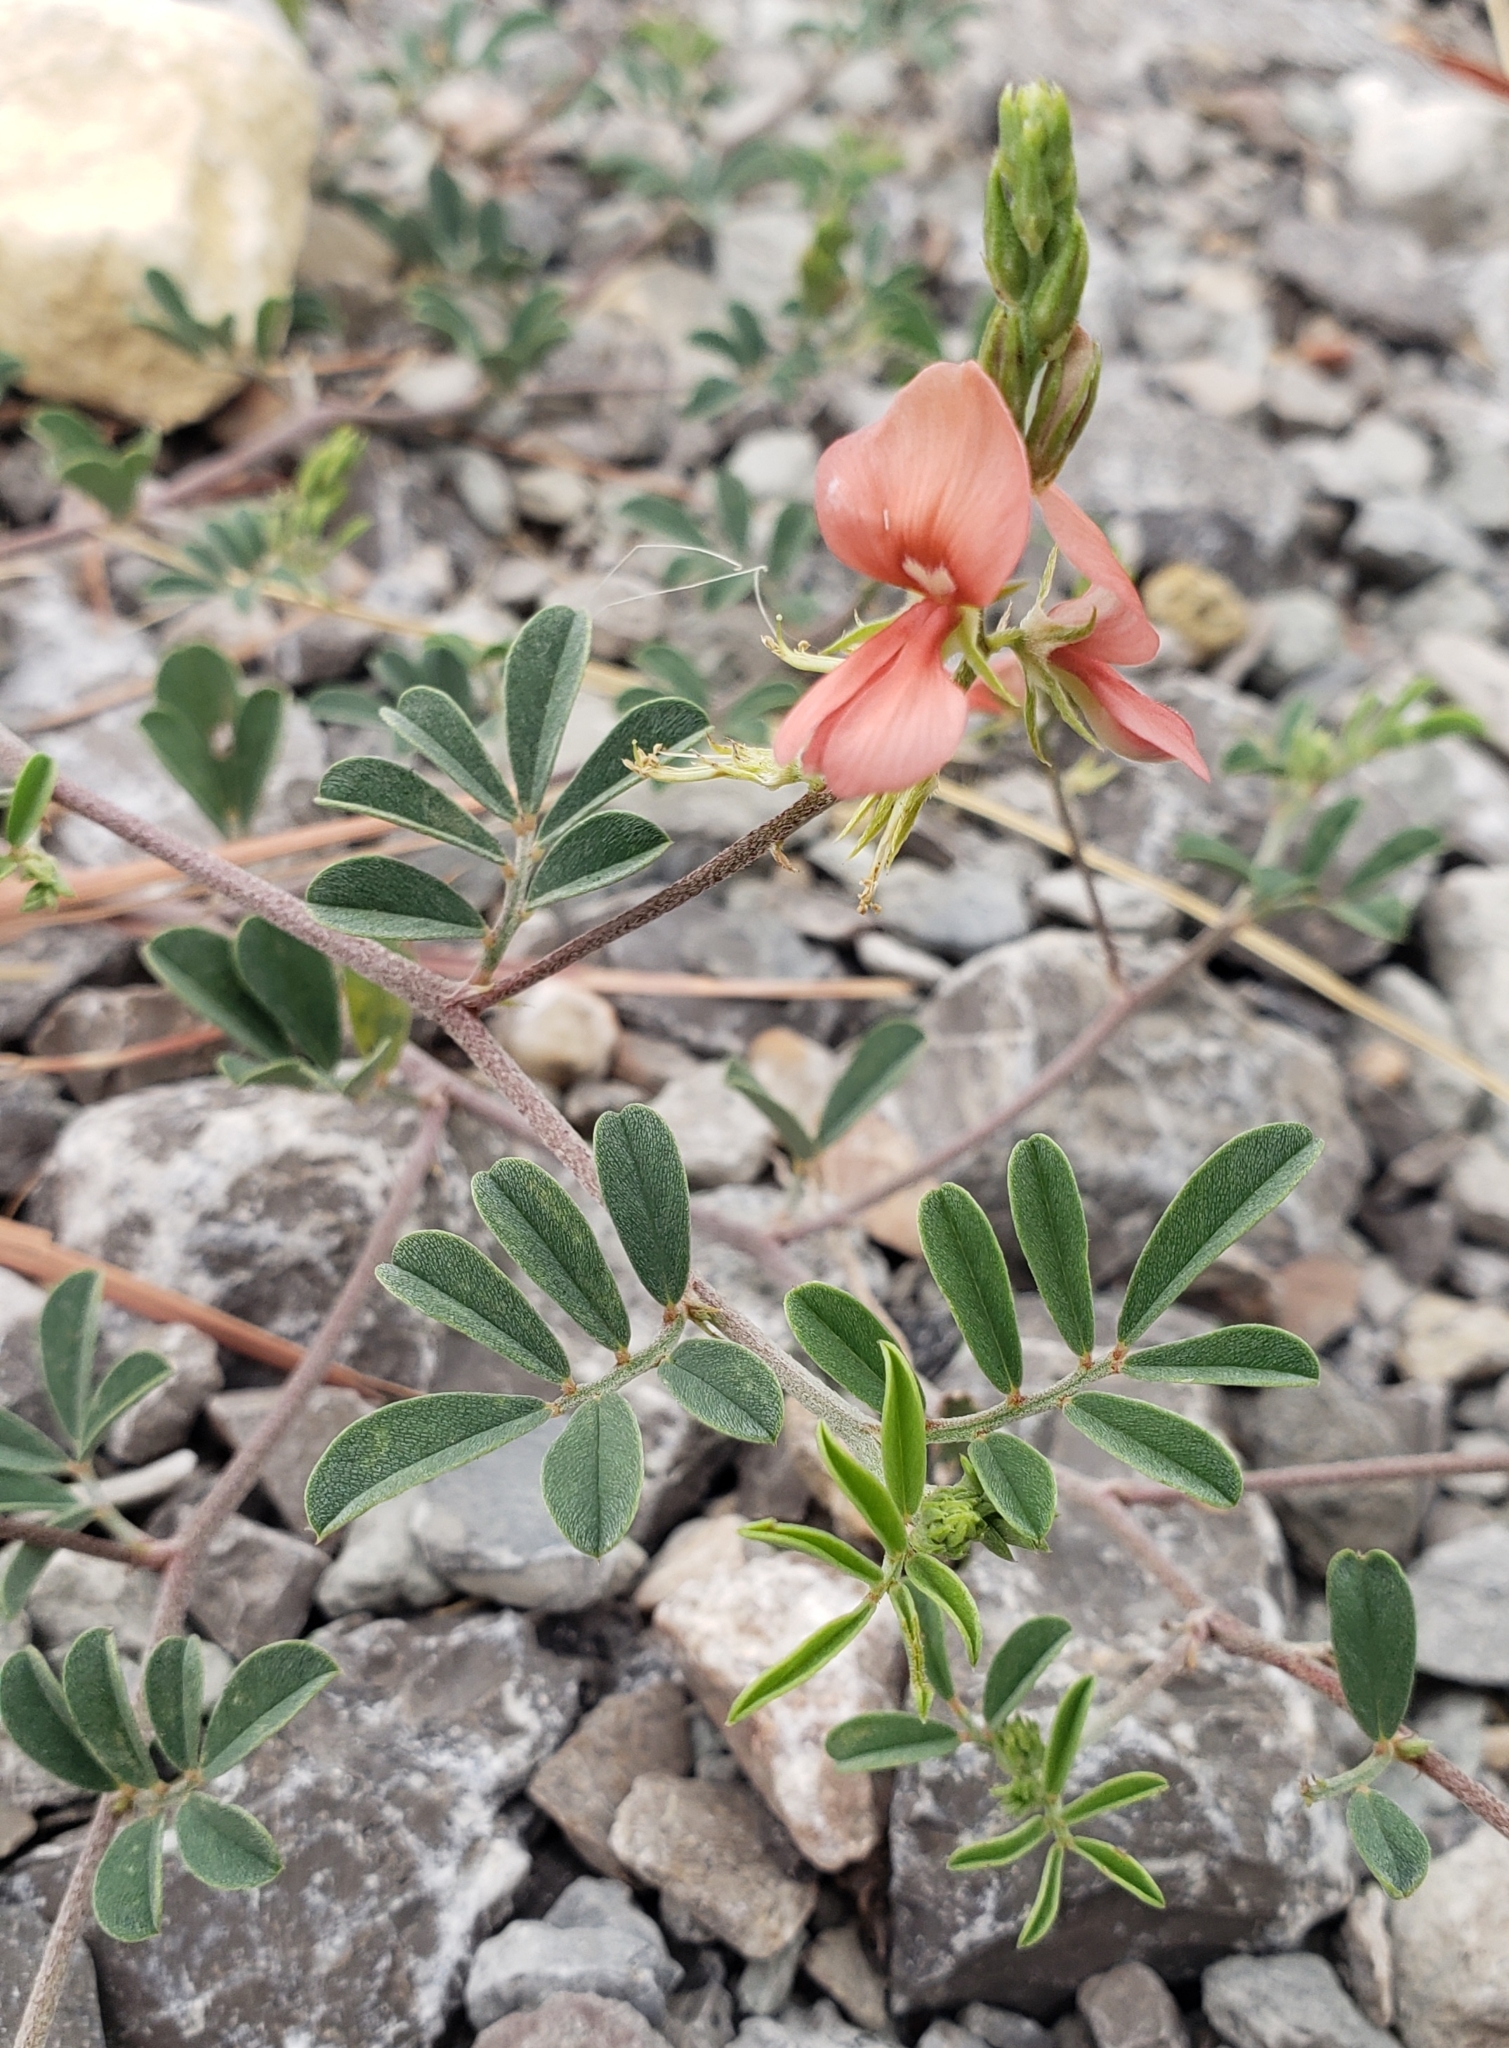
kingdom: Plantae
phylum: Tracheophyta
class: Magnoliopsida
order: Fabales
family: Fabaceae
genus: Indigofera
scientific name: Indigofera miniata
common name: Coast indigo
